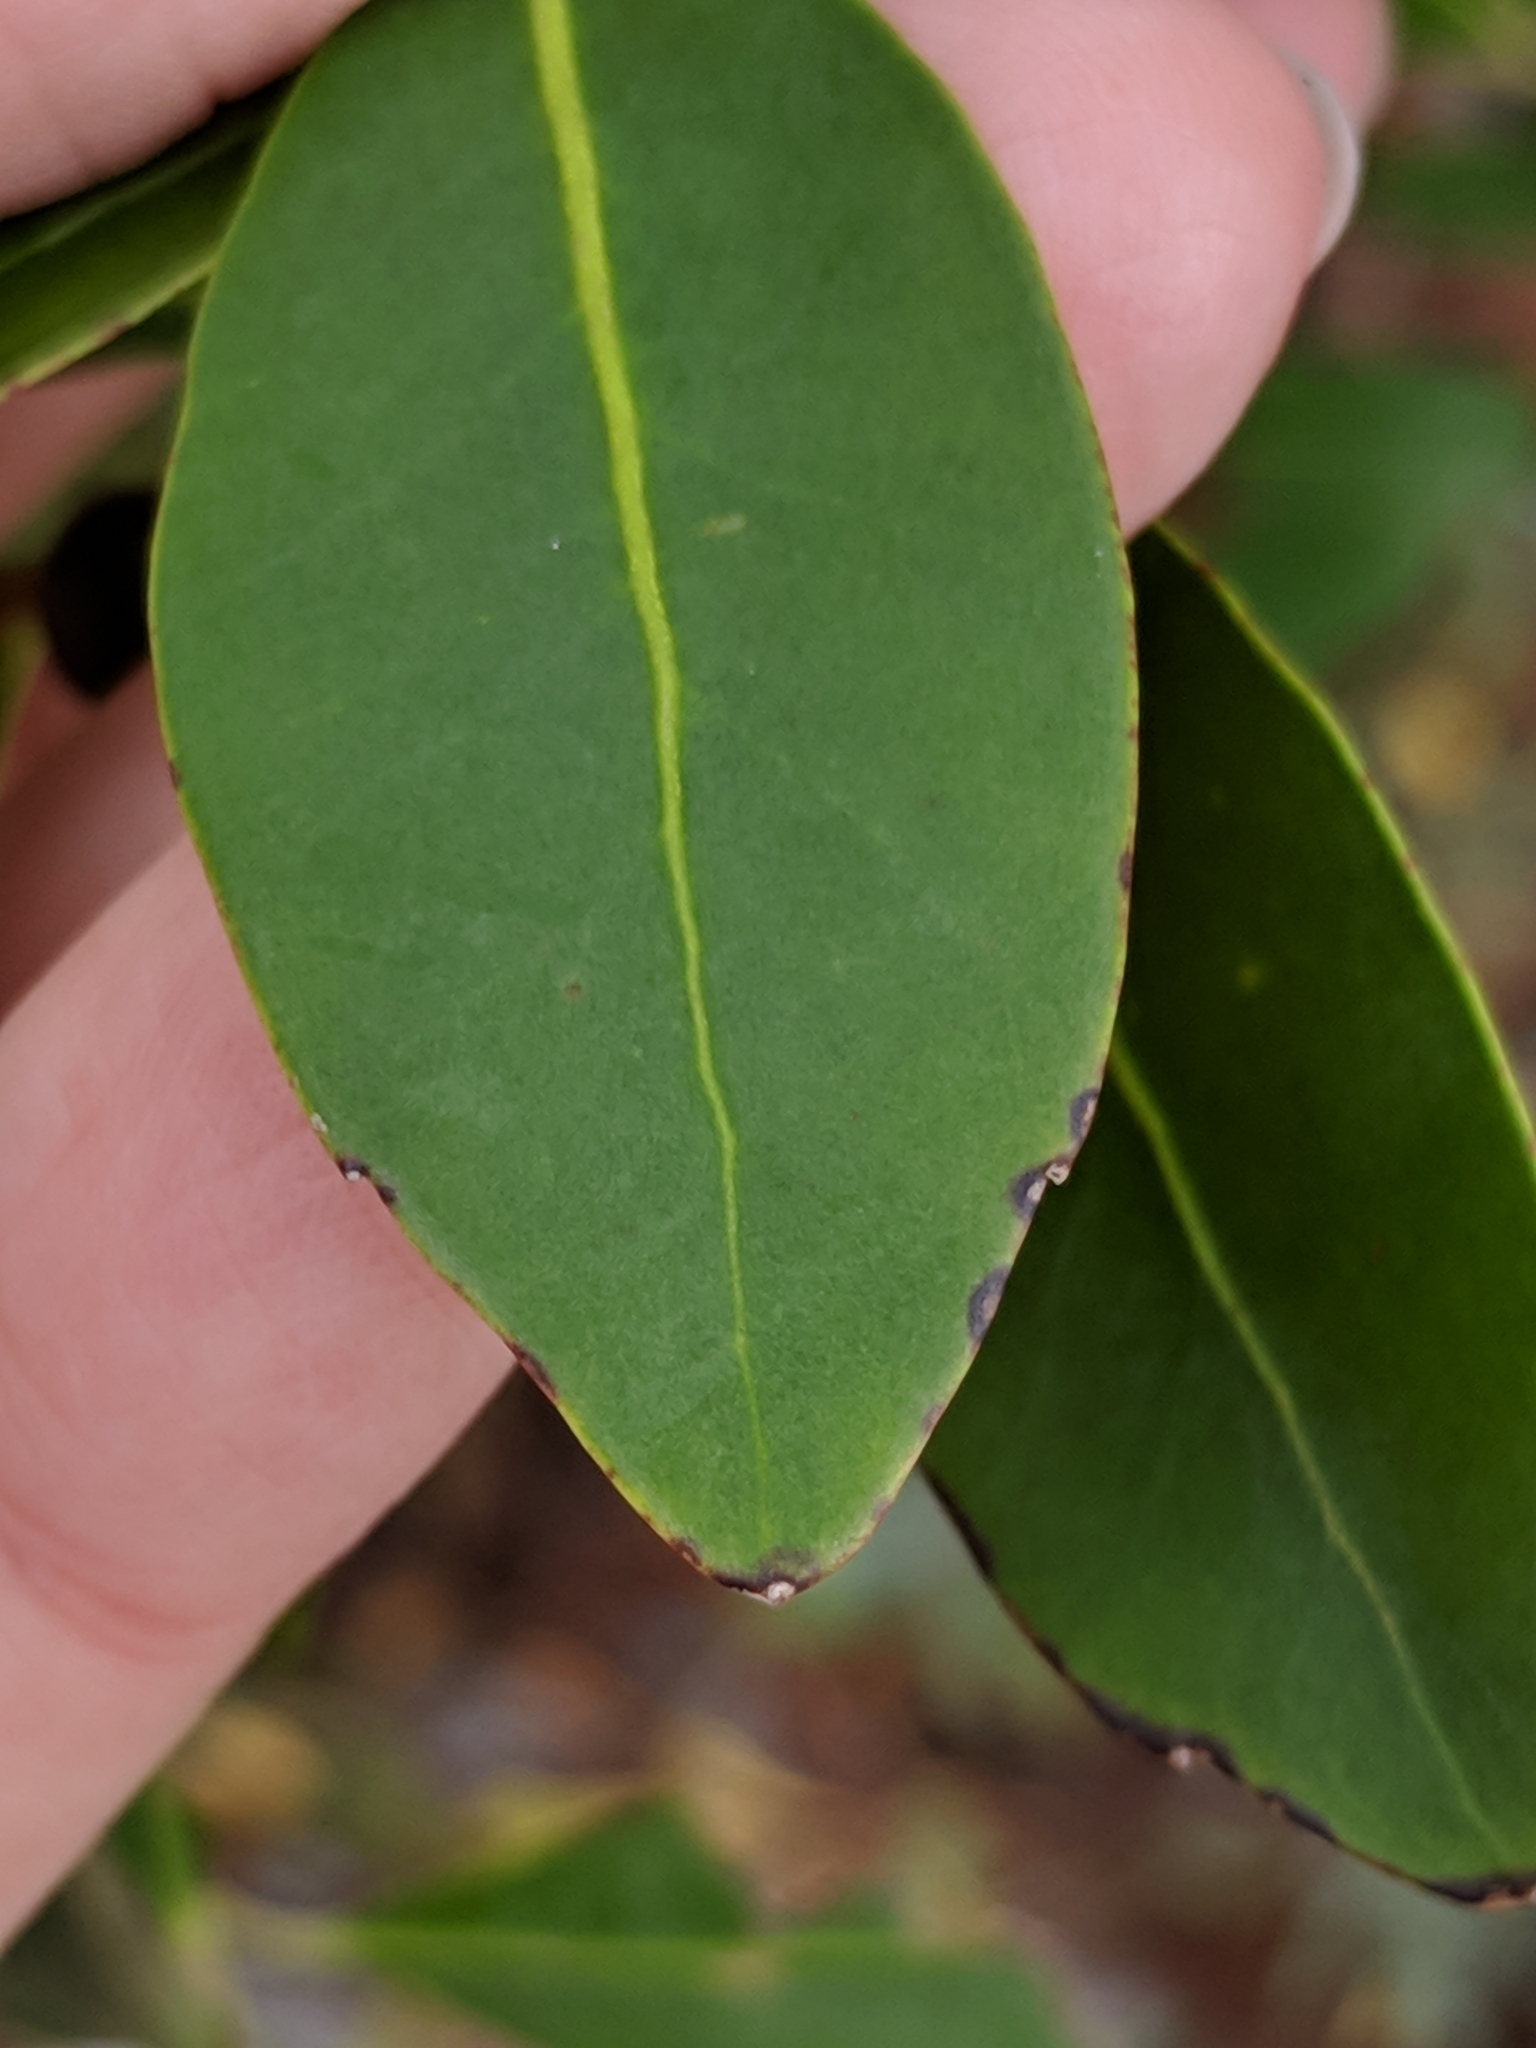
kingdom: Plantae
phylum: Tracheophyta
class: Magnoliopsida
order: Aquifoliales
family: Aquifoliaceae
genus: Ilex
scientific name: Ilex glabra
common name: Bitter gallberry
